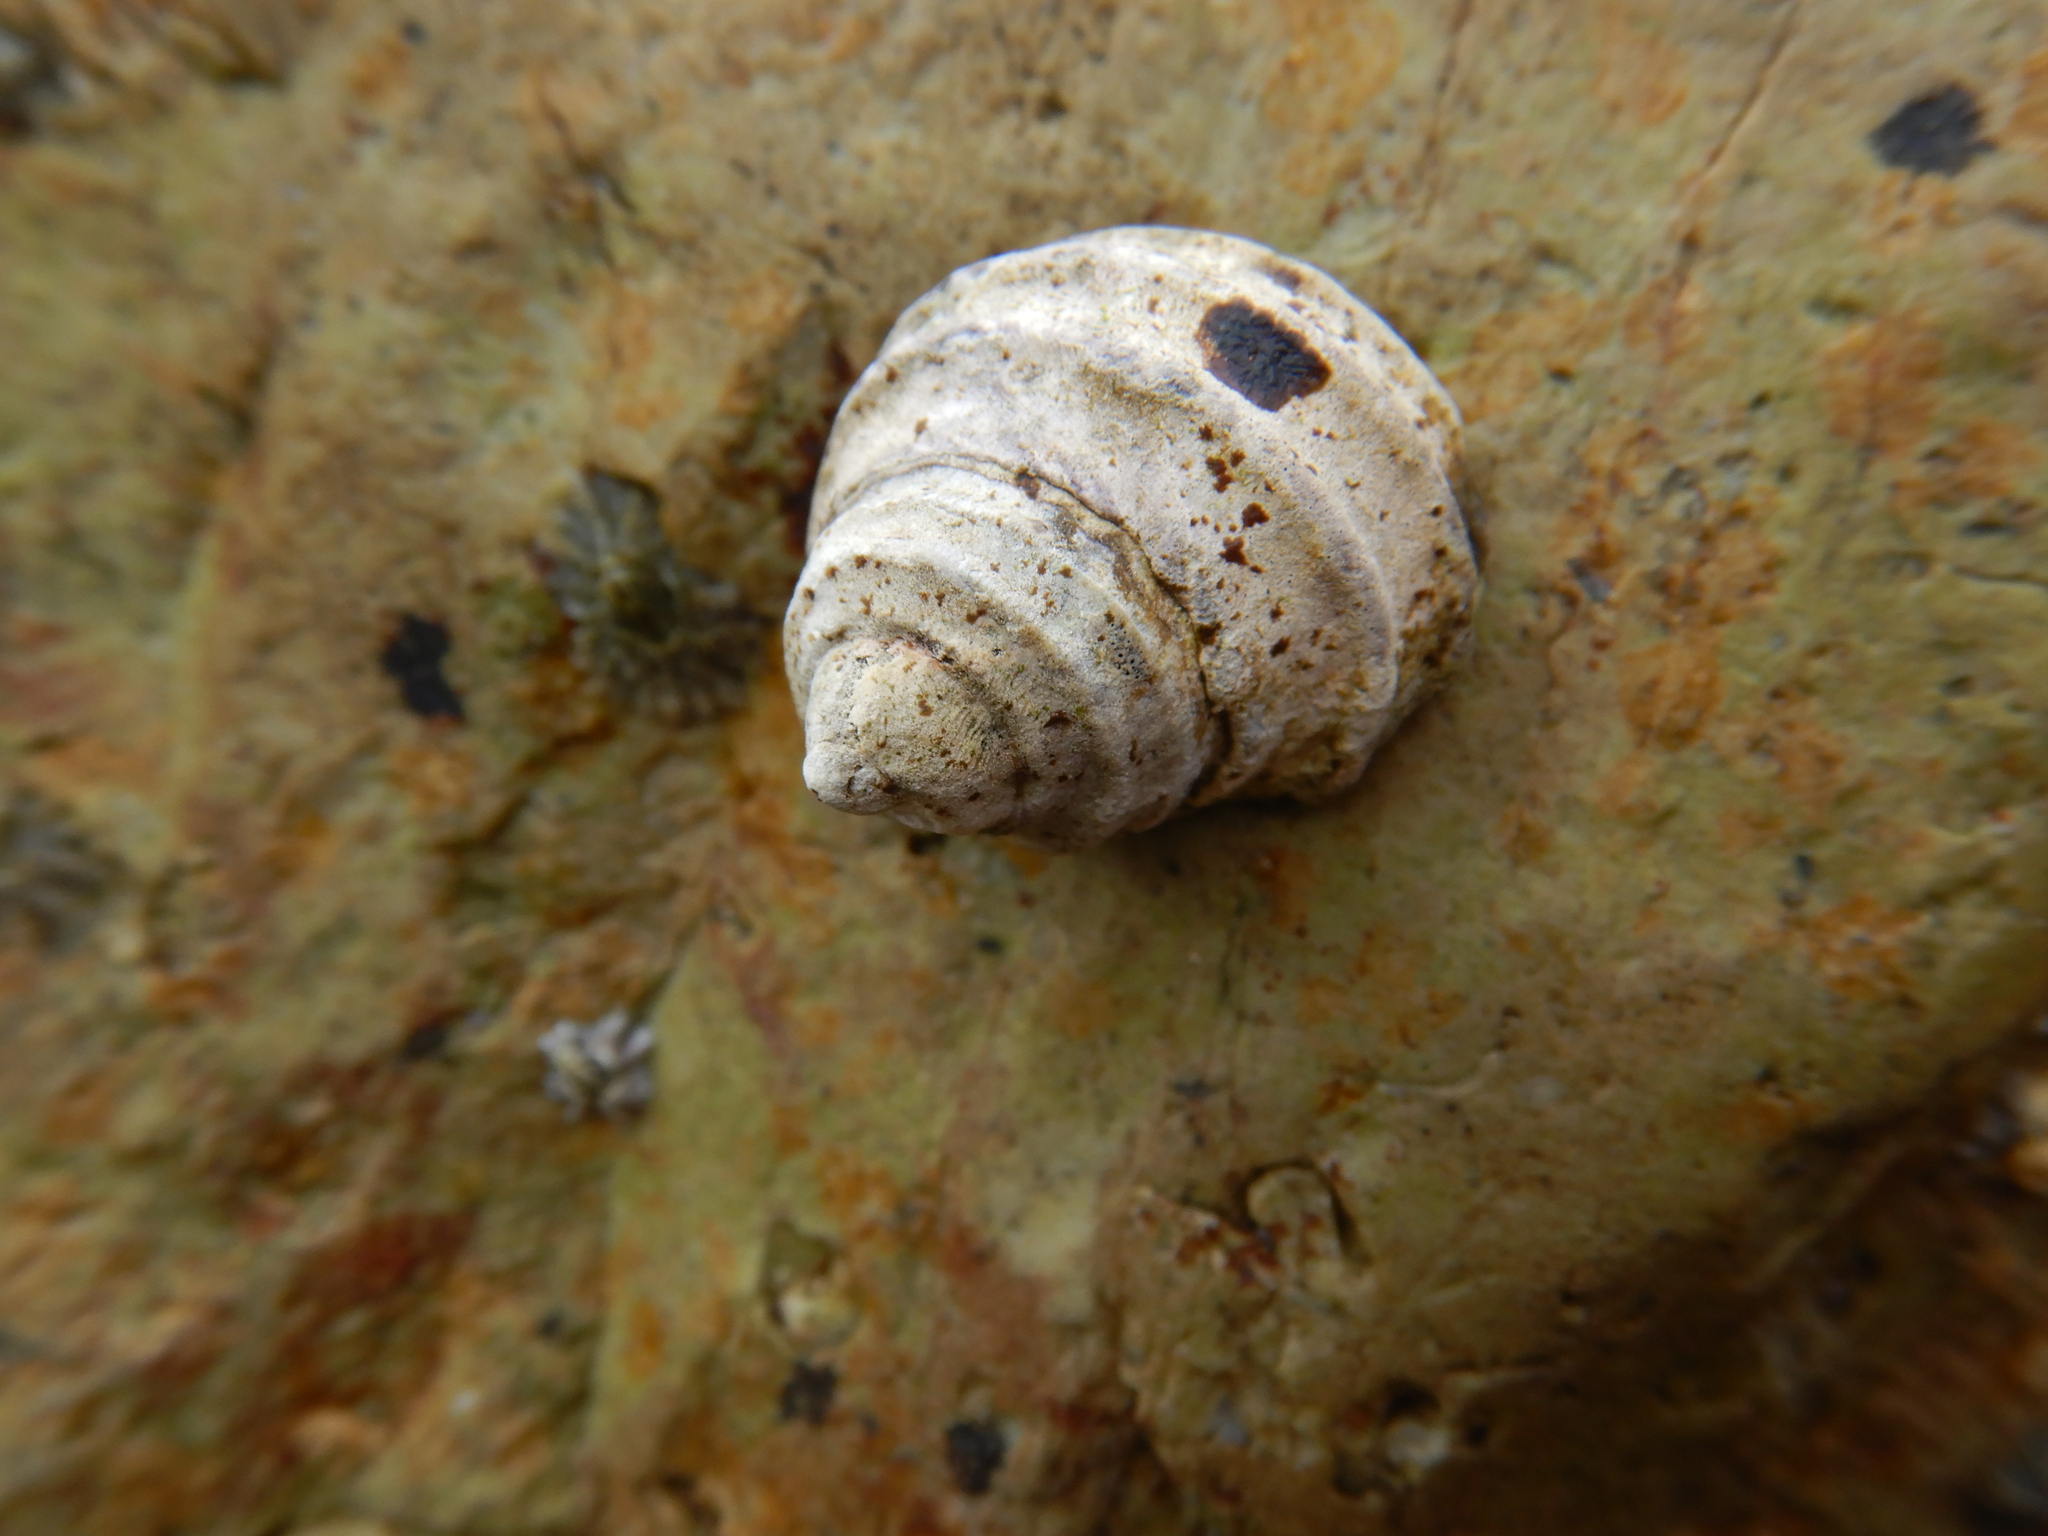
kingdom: Animalia
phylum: Mollusca
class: Gastropoda
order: Trochida
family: Trochidae
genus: Austrocochlea
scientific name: Austrocochlea constricta
